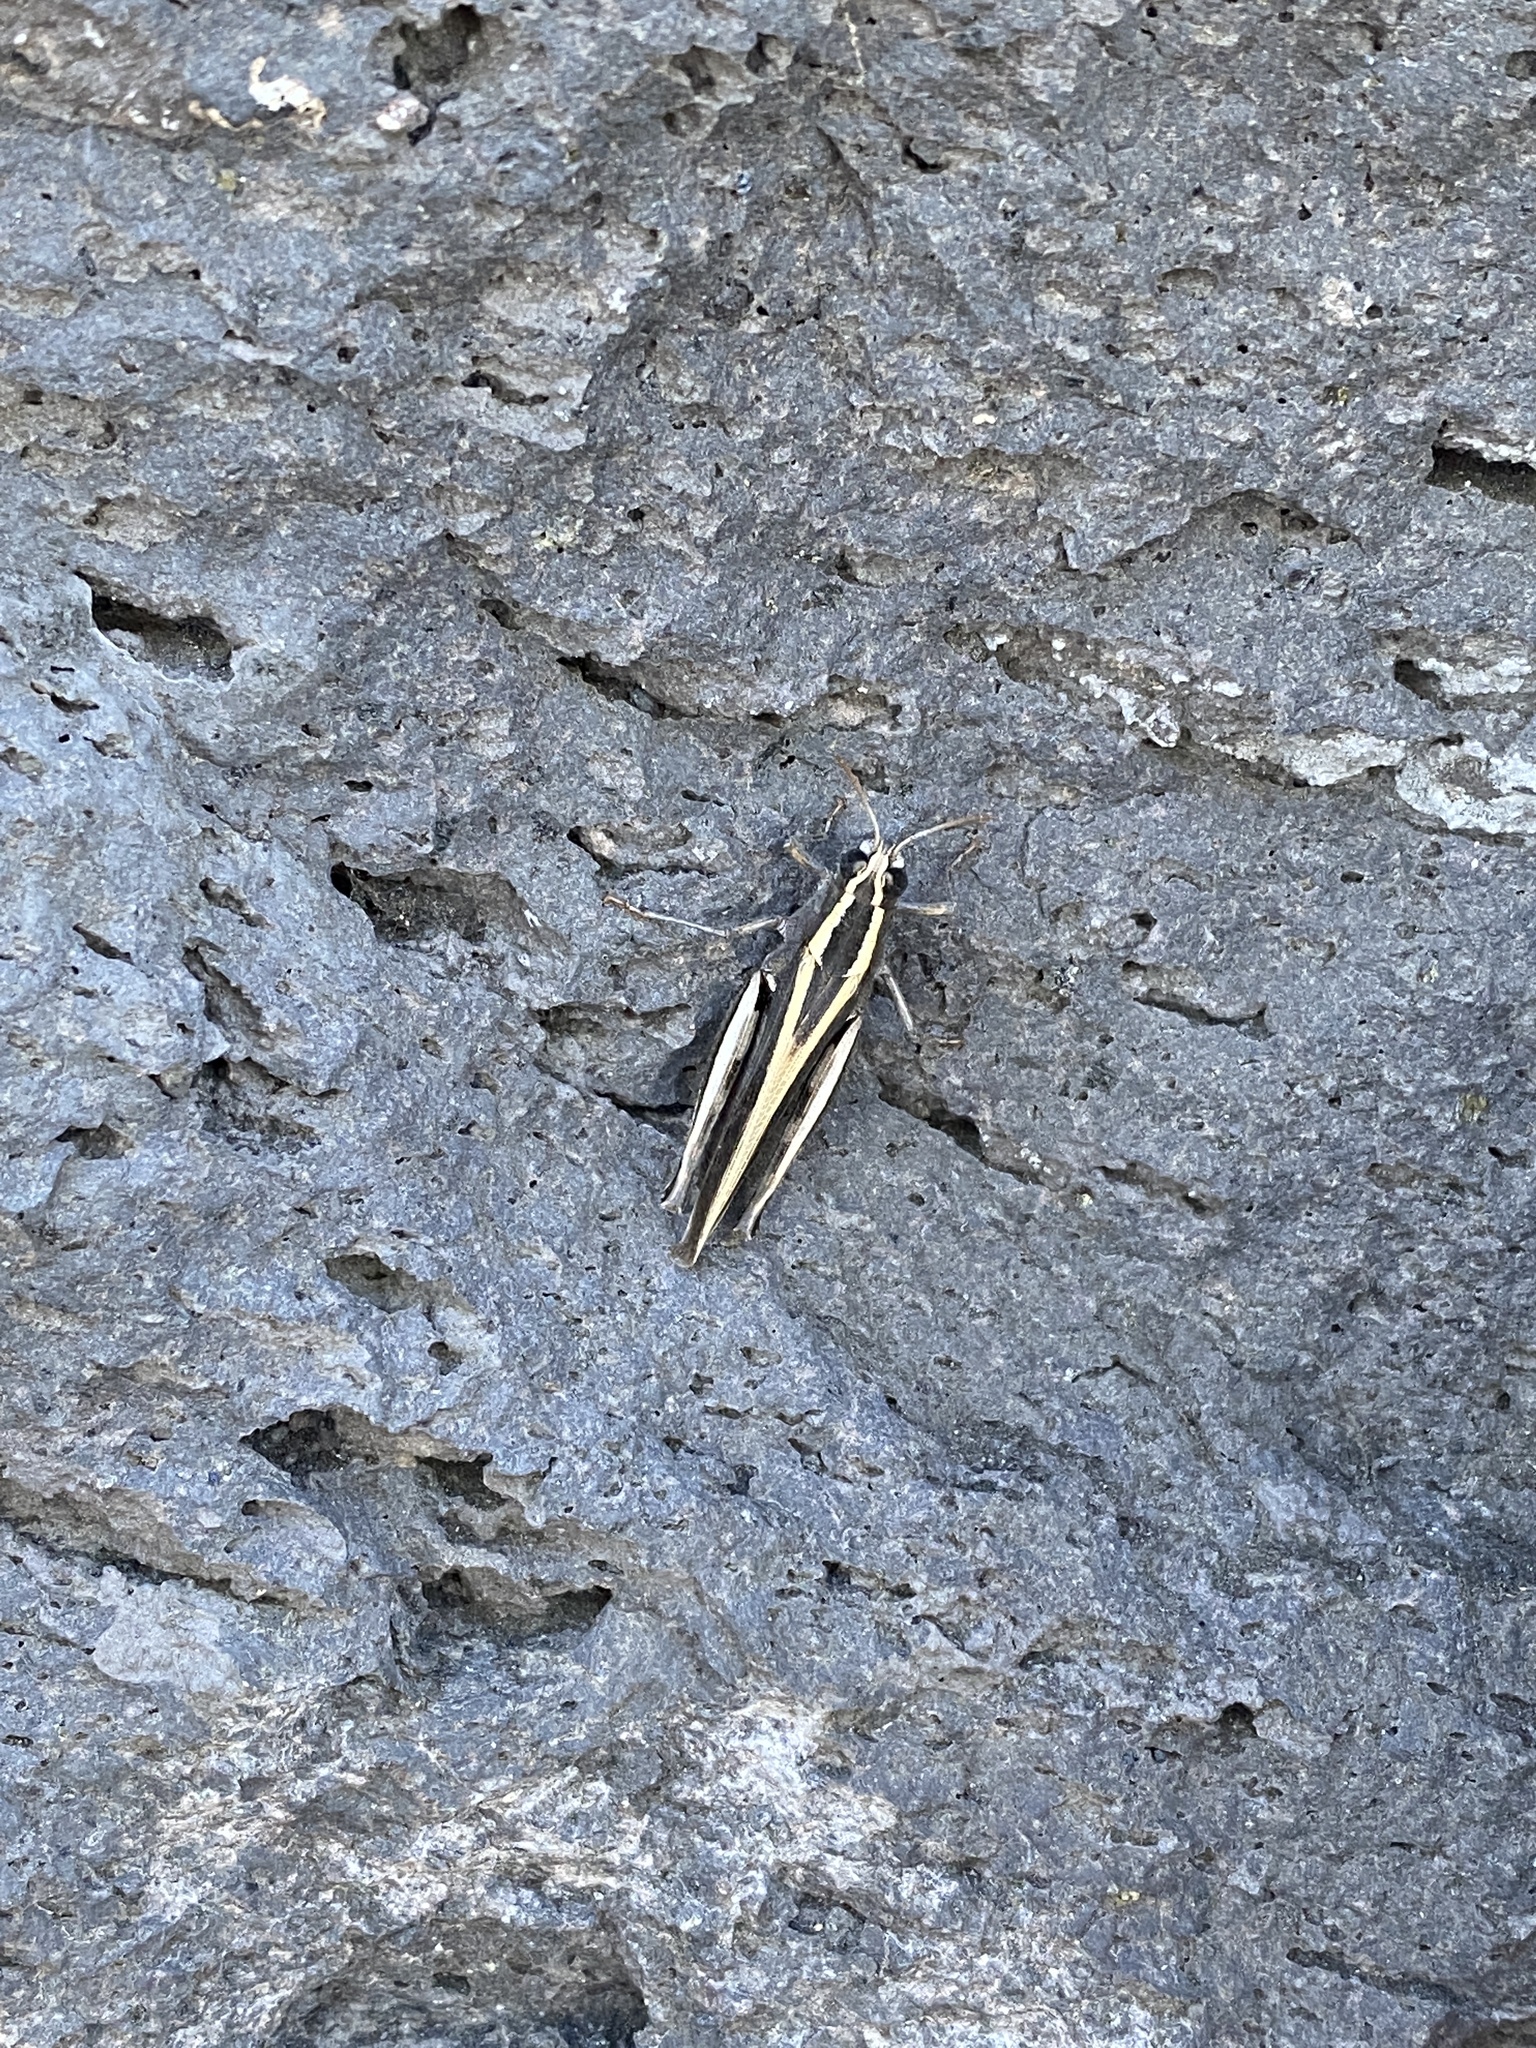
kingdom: Animalia
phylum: Arthropoda
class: Insecta
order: Orthoptera
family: Acrididae
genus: Calliptamus
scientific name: Calliptamus plebeius
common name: Canarian pincer grasshopper
